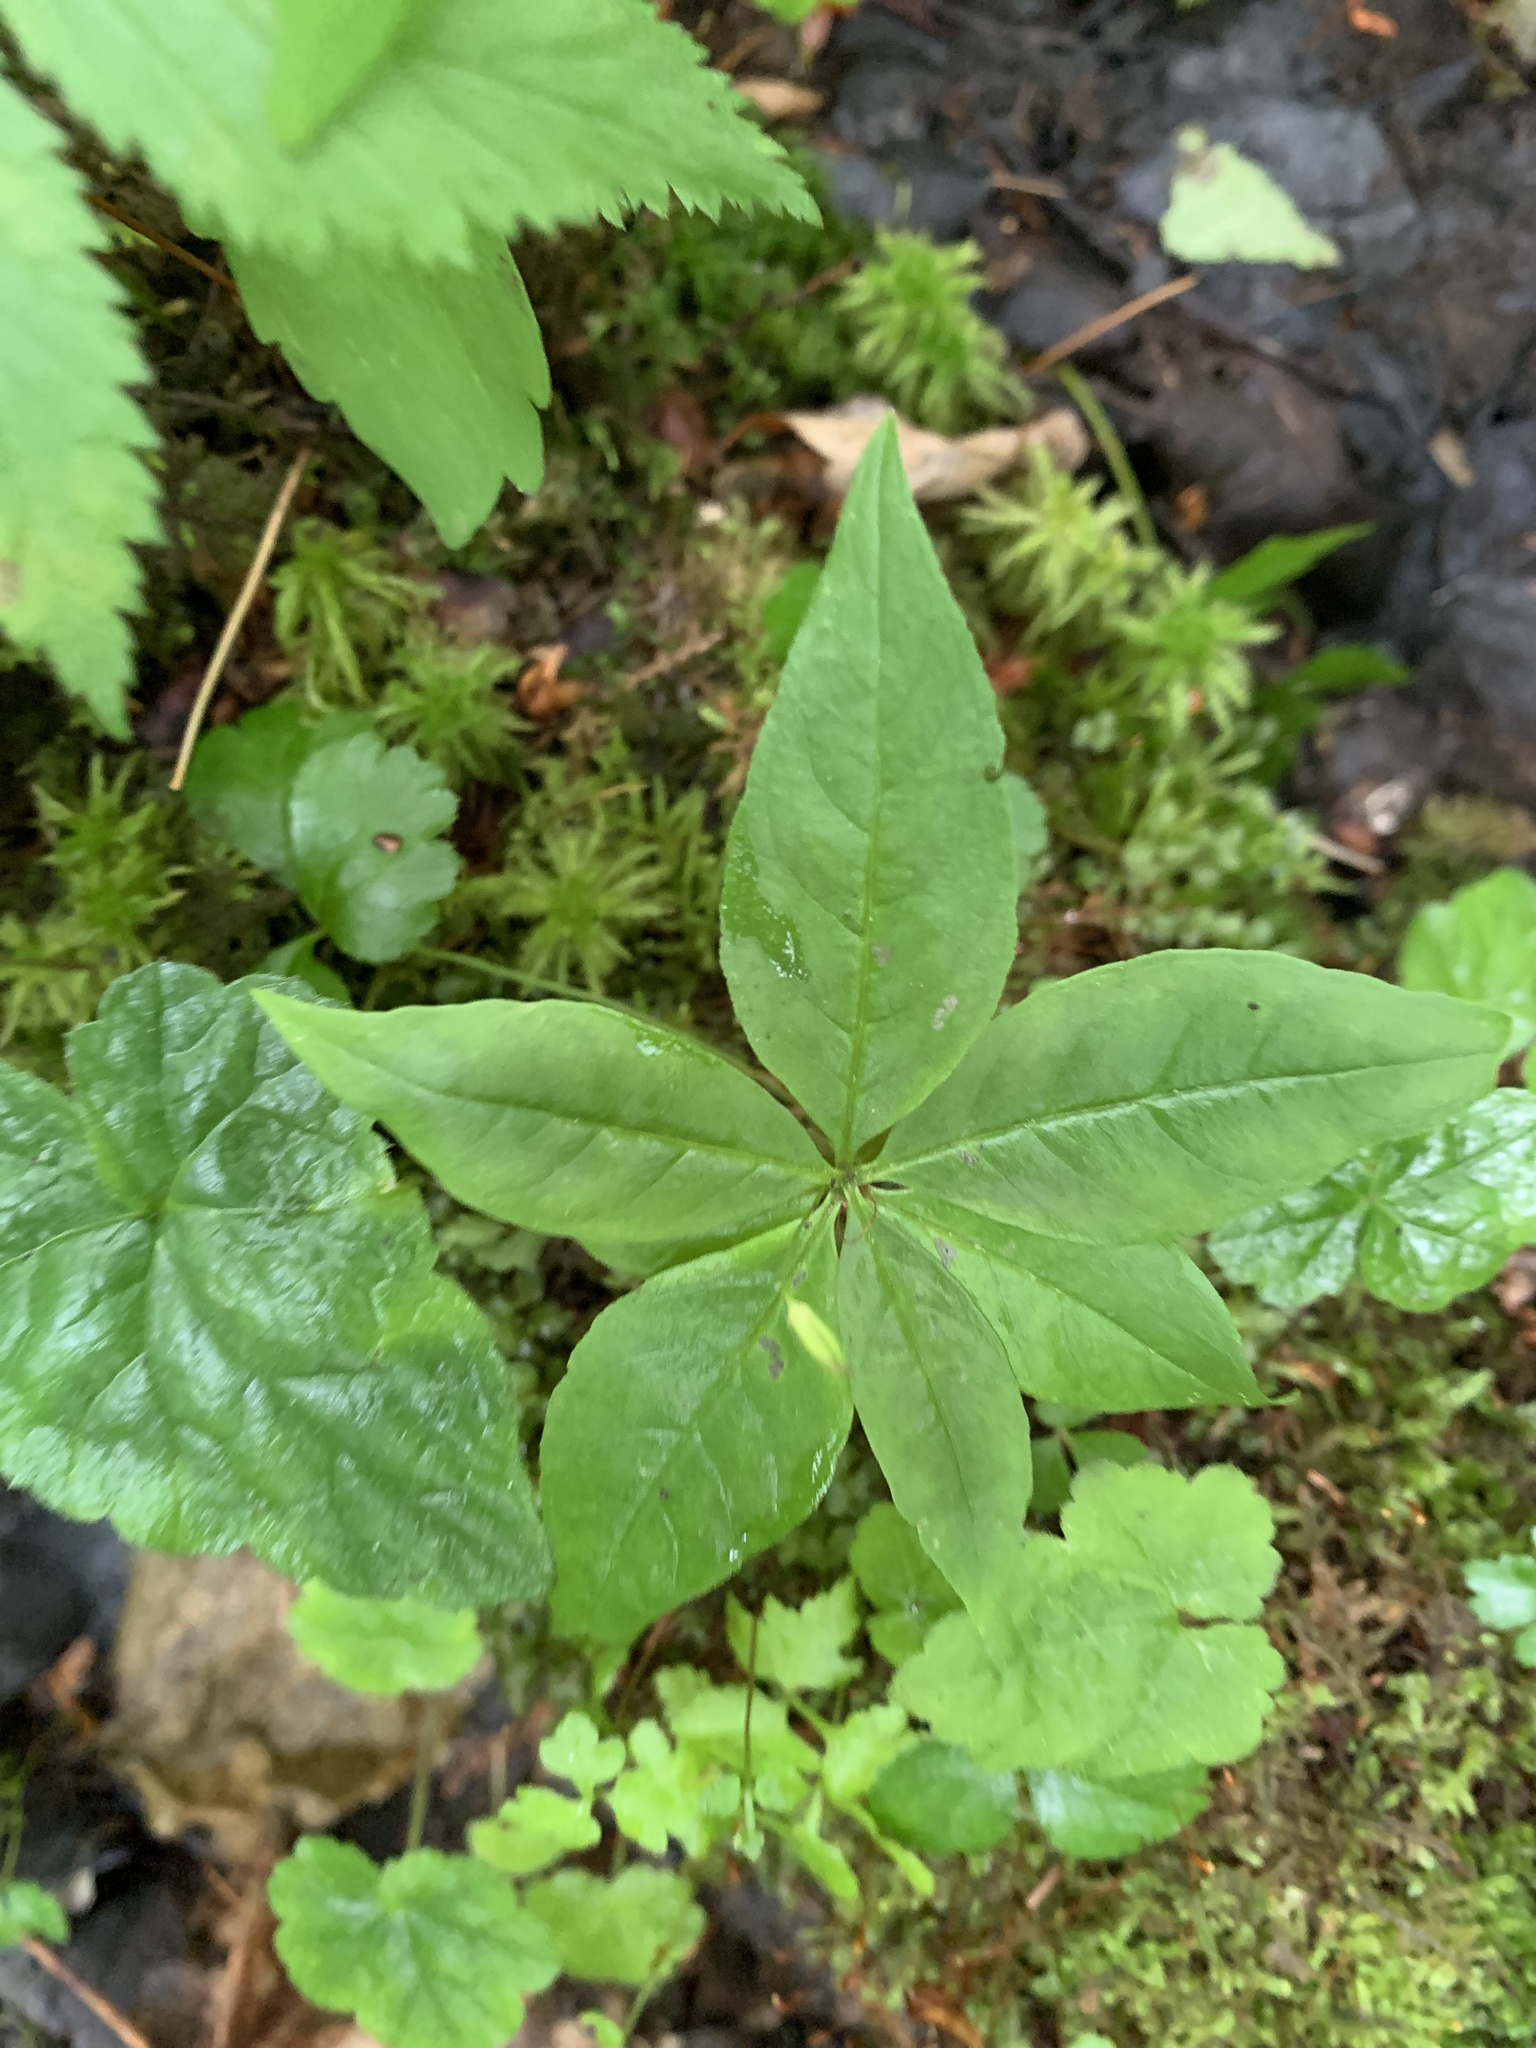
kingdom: Plantae
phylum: Tracheophyta
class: Magnoliopsida
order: Ericales
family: Primulaceae
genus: Lysimachia
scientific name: Lysimachia borealis
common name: American starflower
